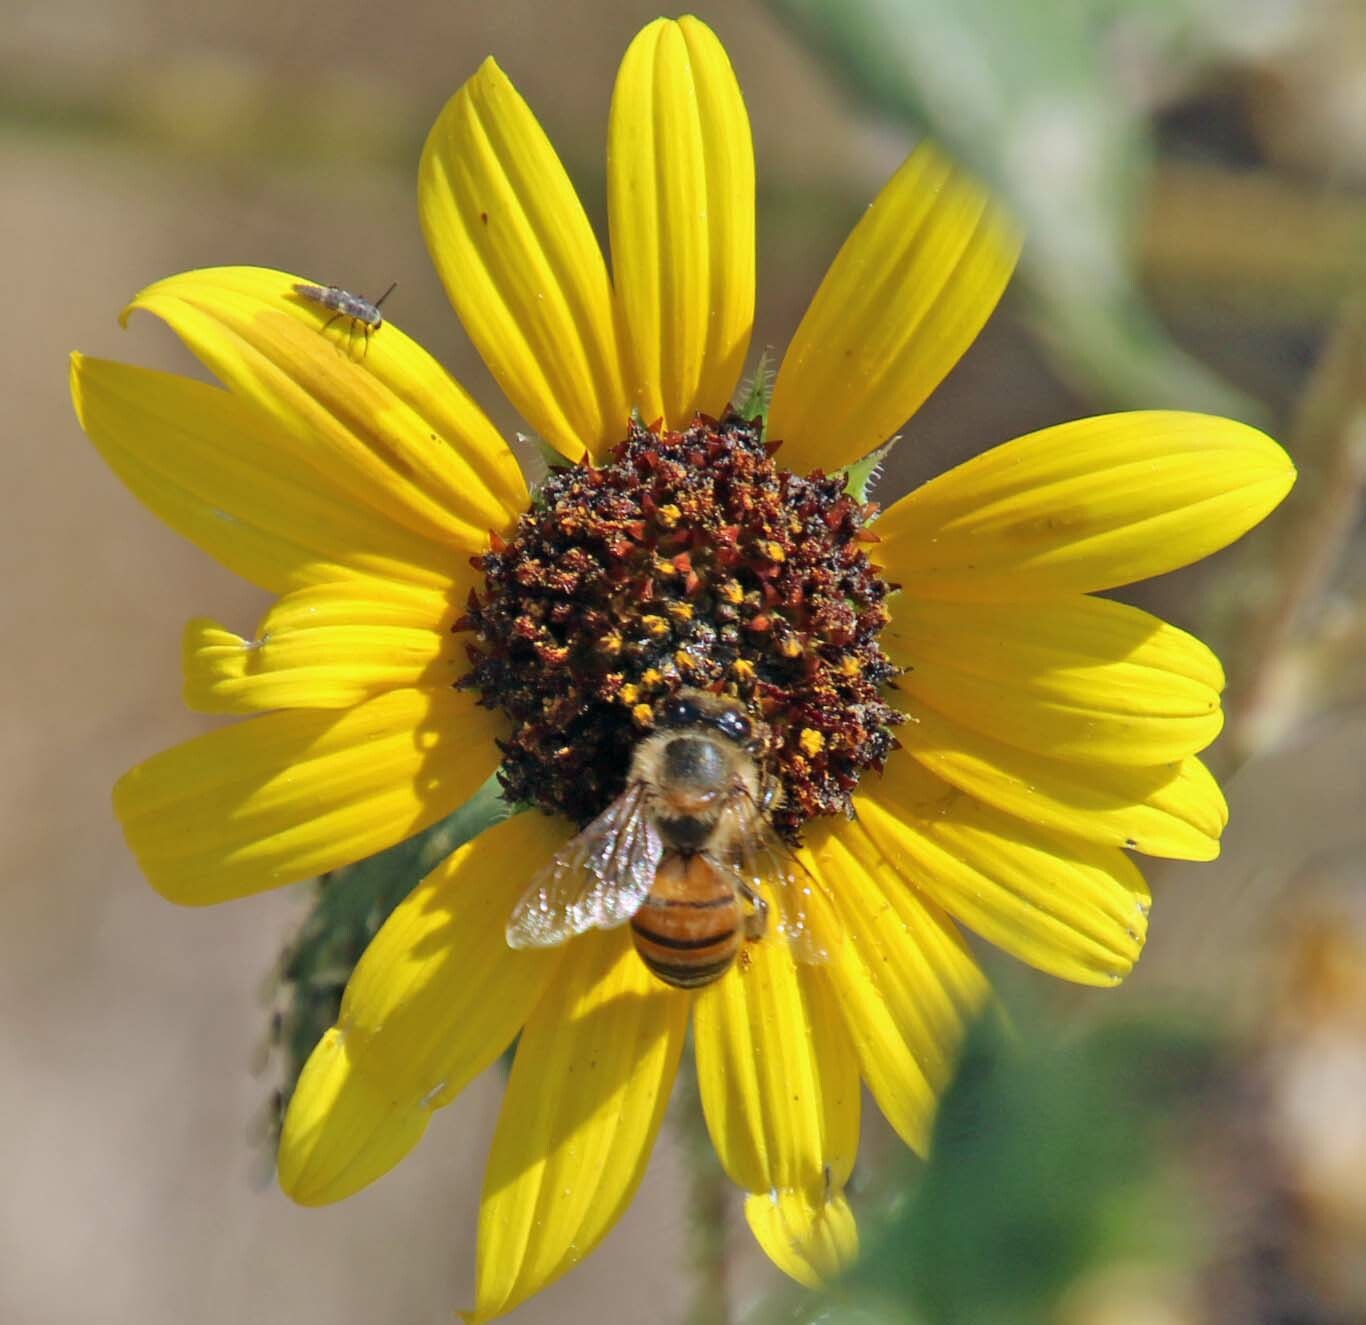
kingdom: Animalia
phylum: Arthropoda
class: Insecta
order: Hymenoptera
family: Apidae
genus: Apis
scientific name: Apis mellifera
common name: Honey bee
